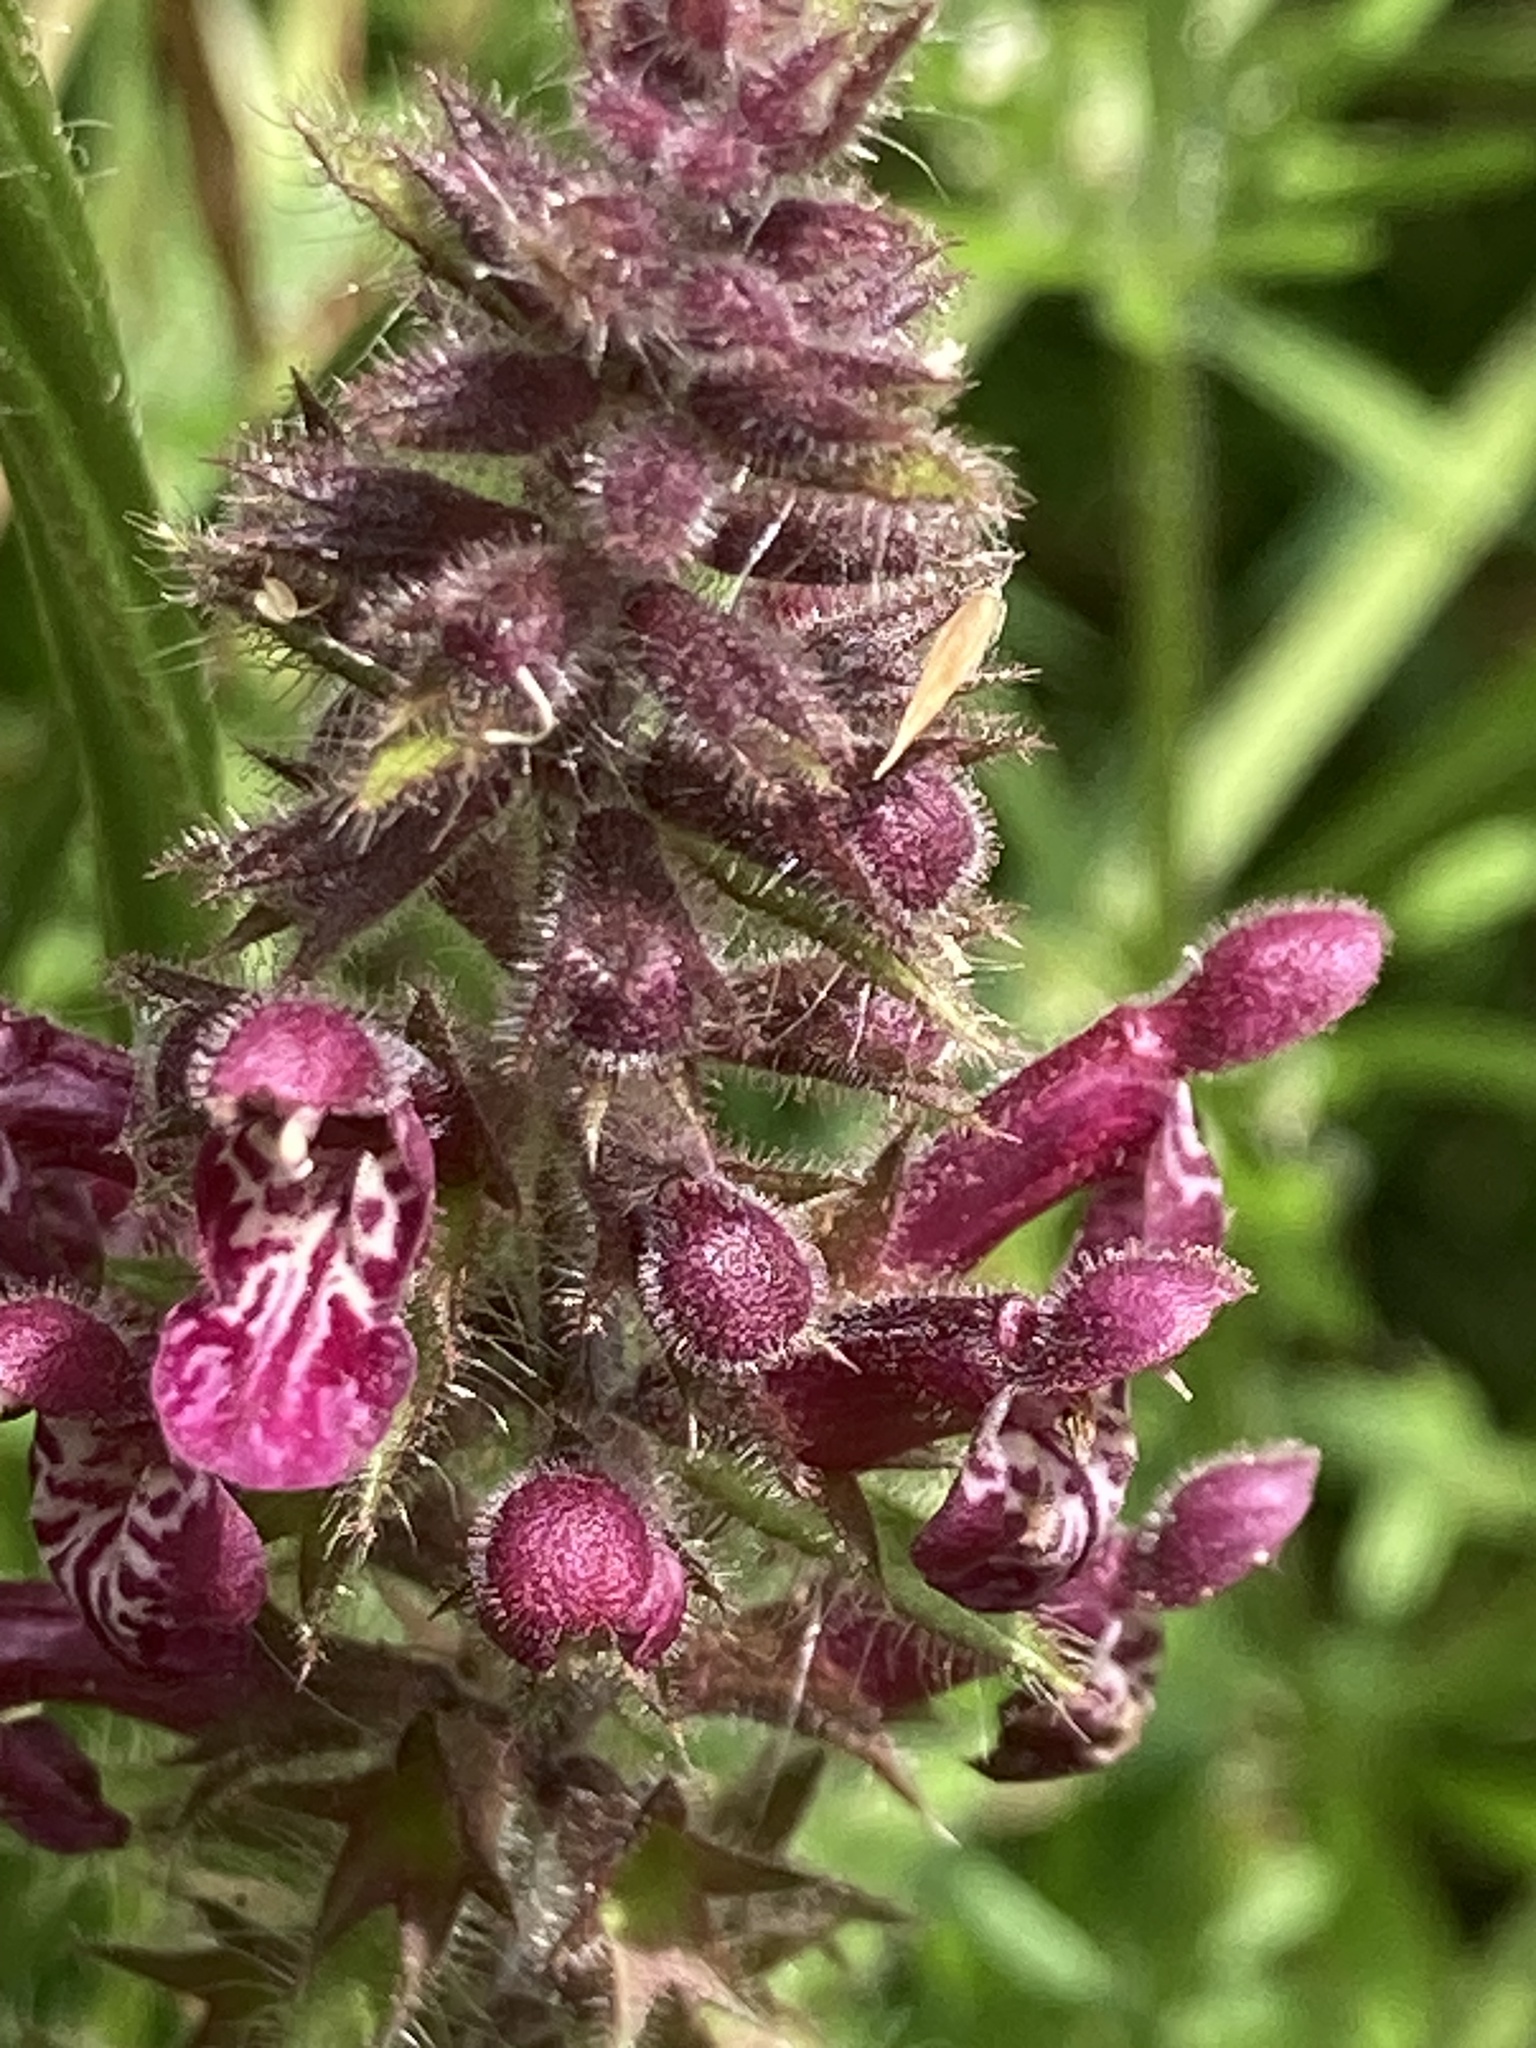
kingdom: Plantae
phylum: Tracheophyta
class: Magnoliopsida
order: Lamiales
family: Lamiaceae
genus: Stachys
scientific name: Stachys sylvatica
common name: Hedge woundwort
